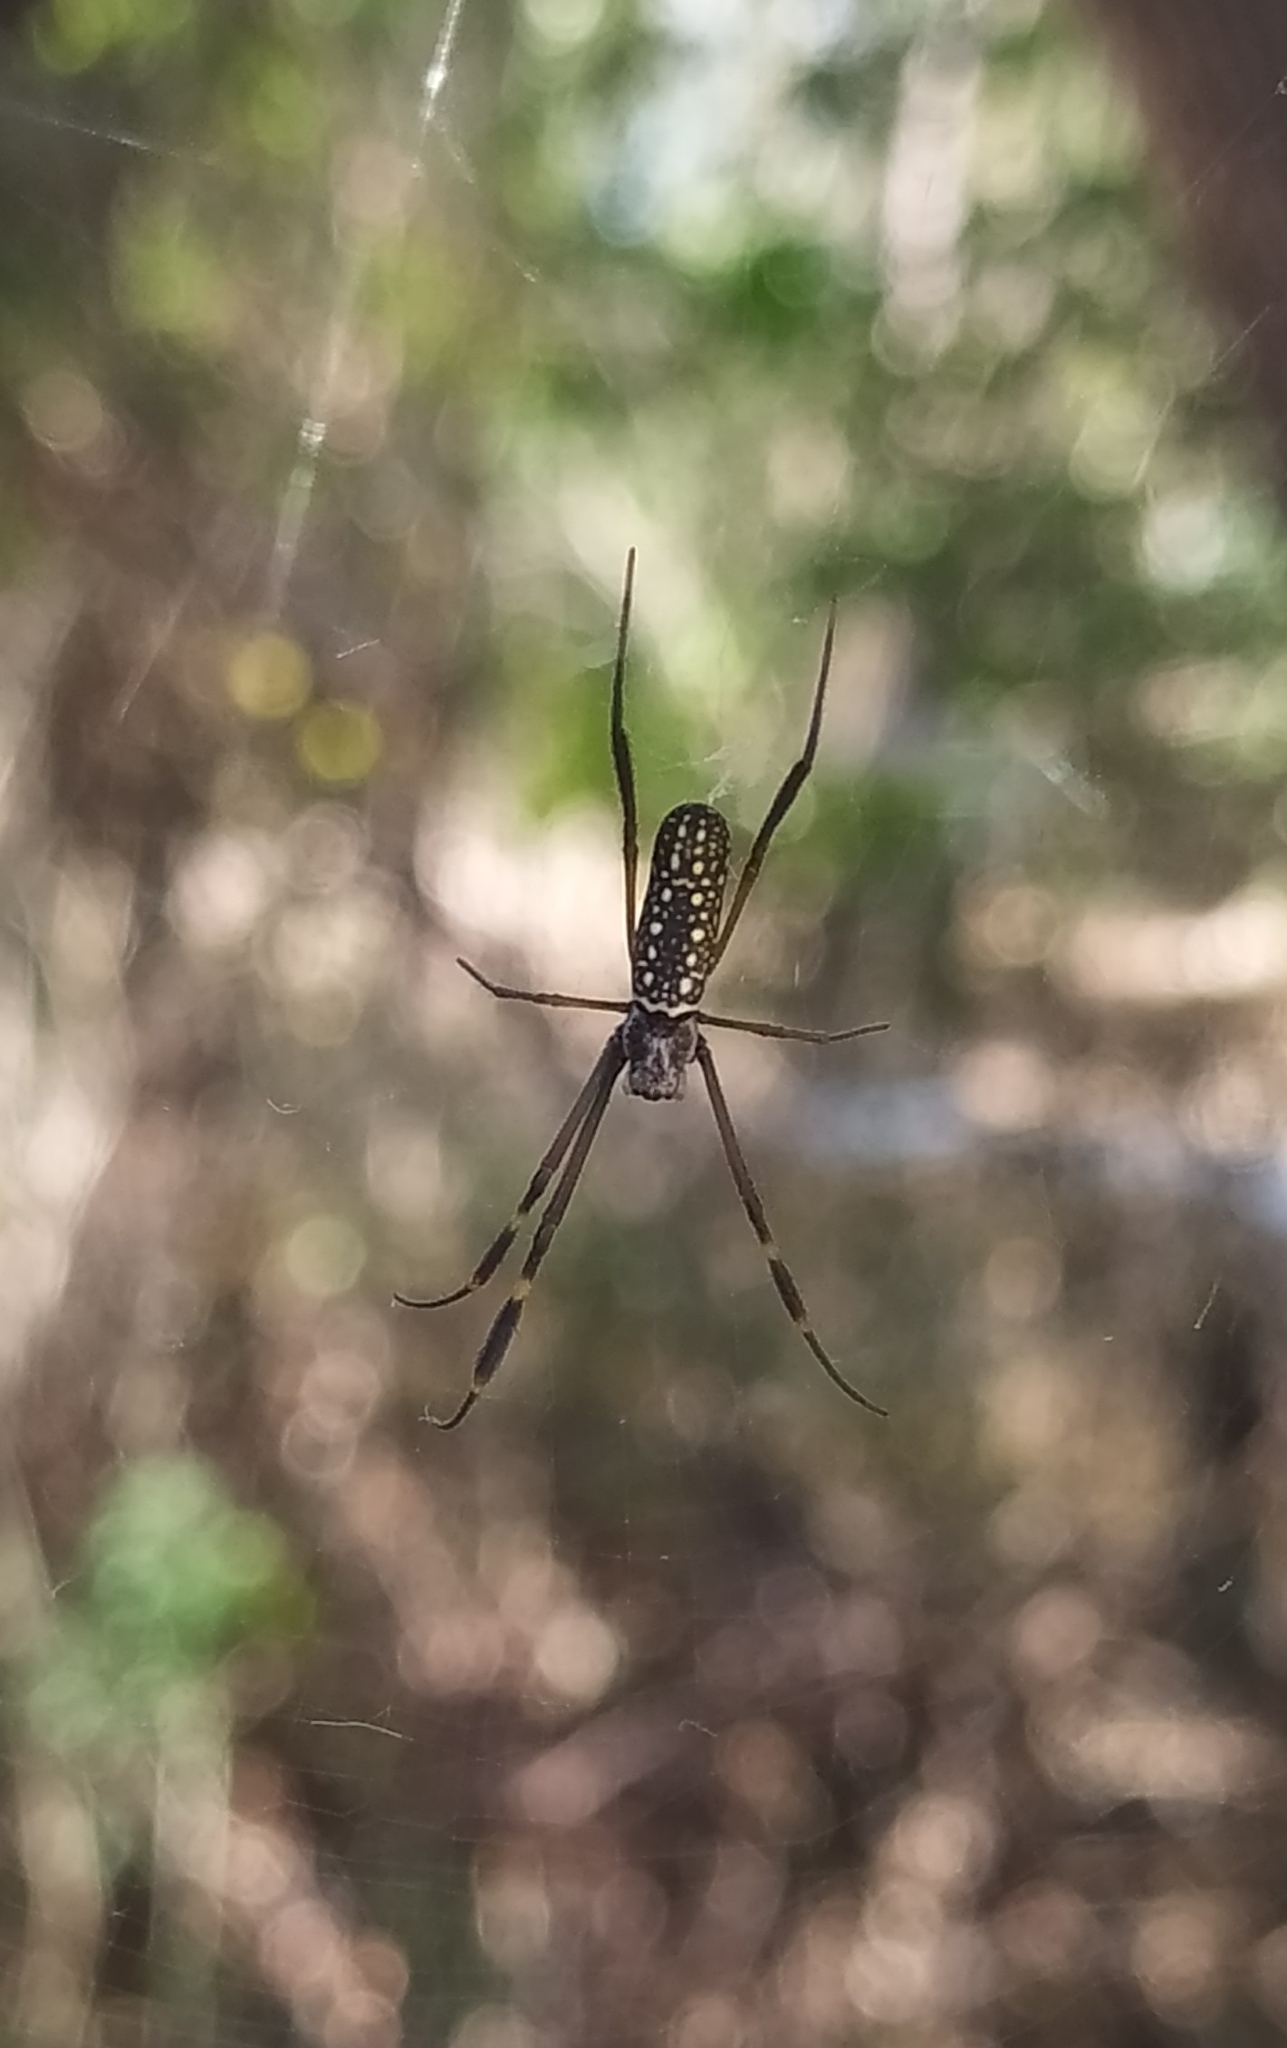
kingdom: Animalia
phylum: Arthropoda
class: Arachnida
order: Araneae
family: Araneidae
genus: Trichonephila
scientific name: Trichonephila clavipes
